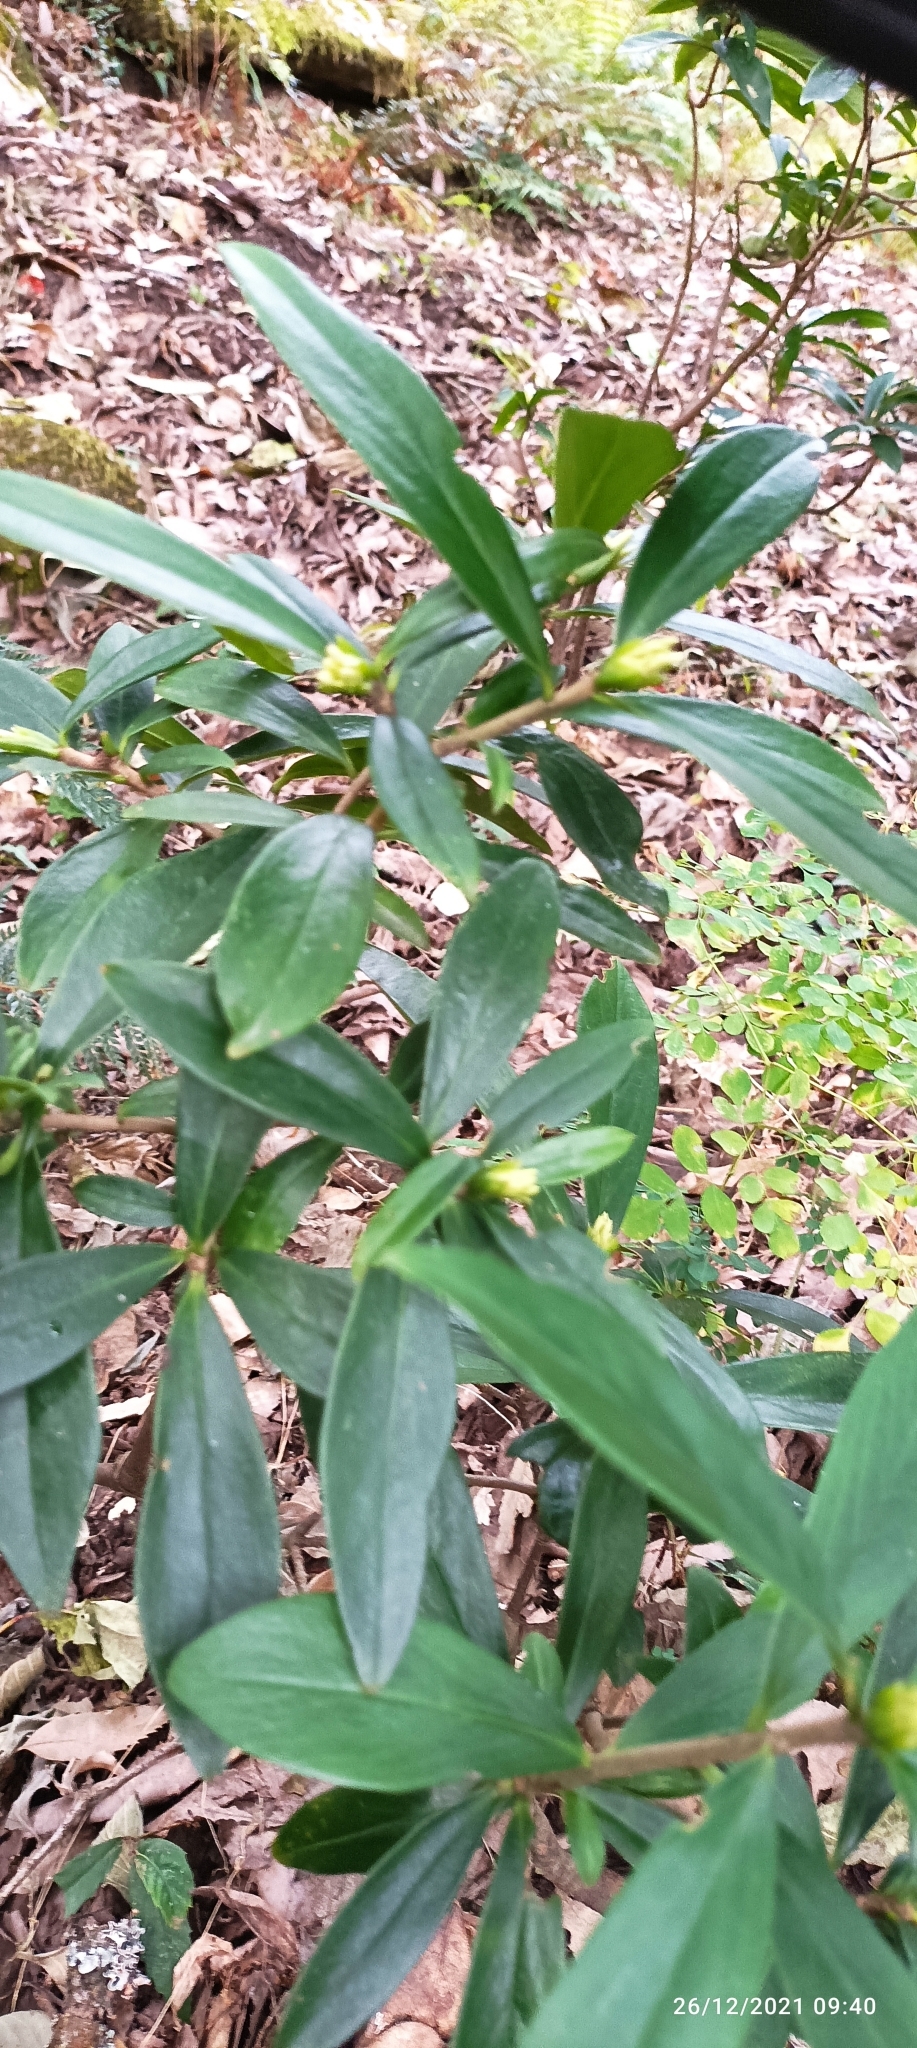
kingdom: Plantae
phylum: Tracheophyta
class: Magnoliopsida
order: Malvales
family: Thymelaeaceae
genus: Daphne
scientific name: Daphne papyracea
